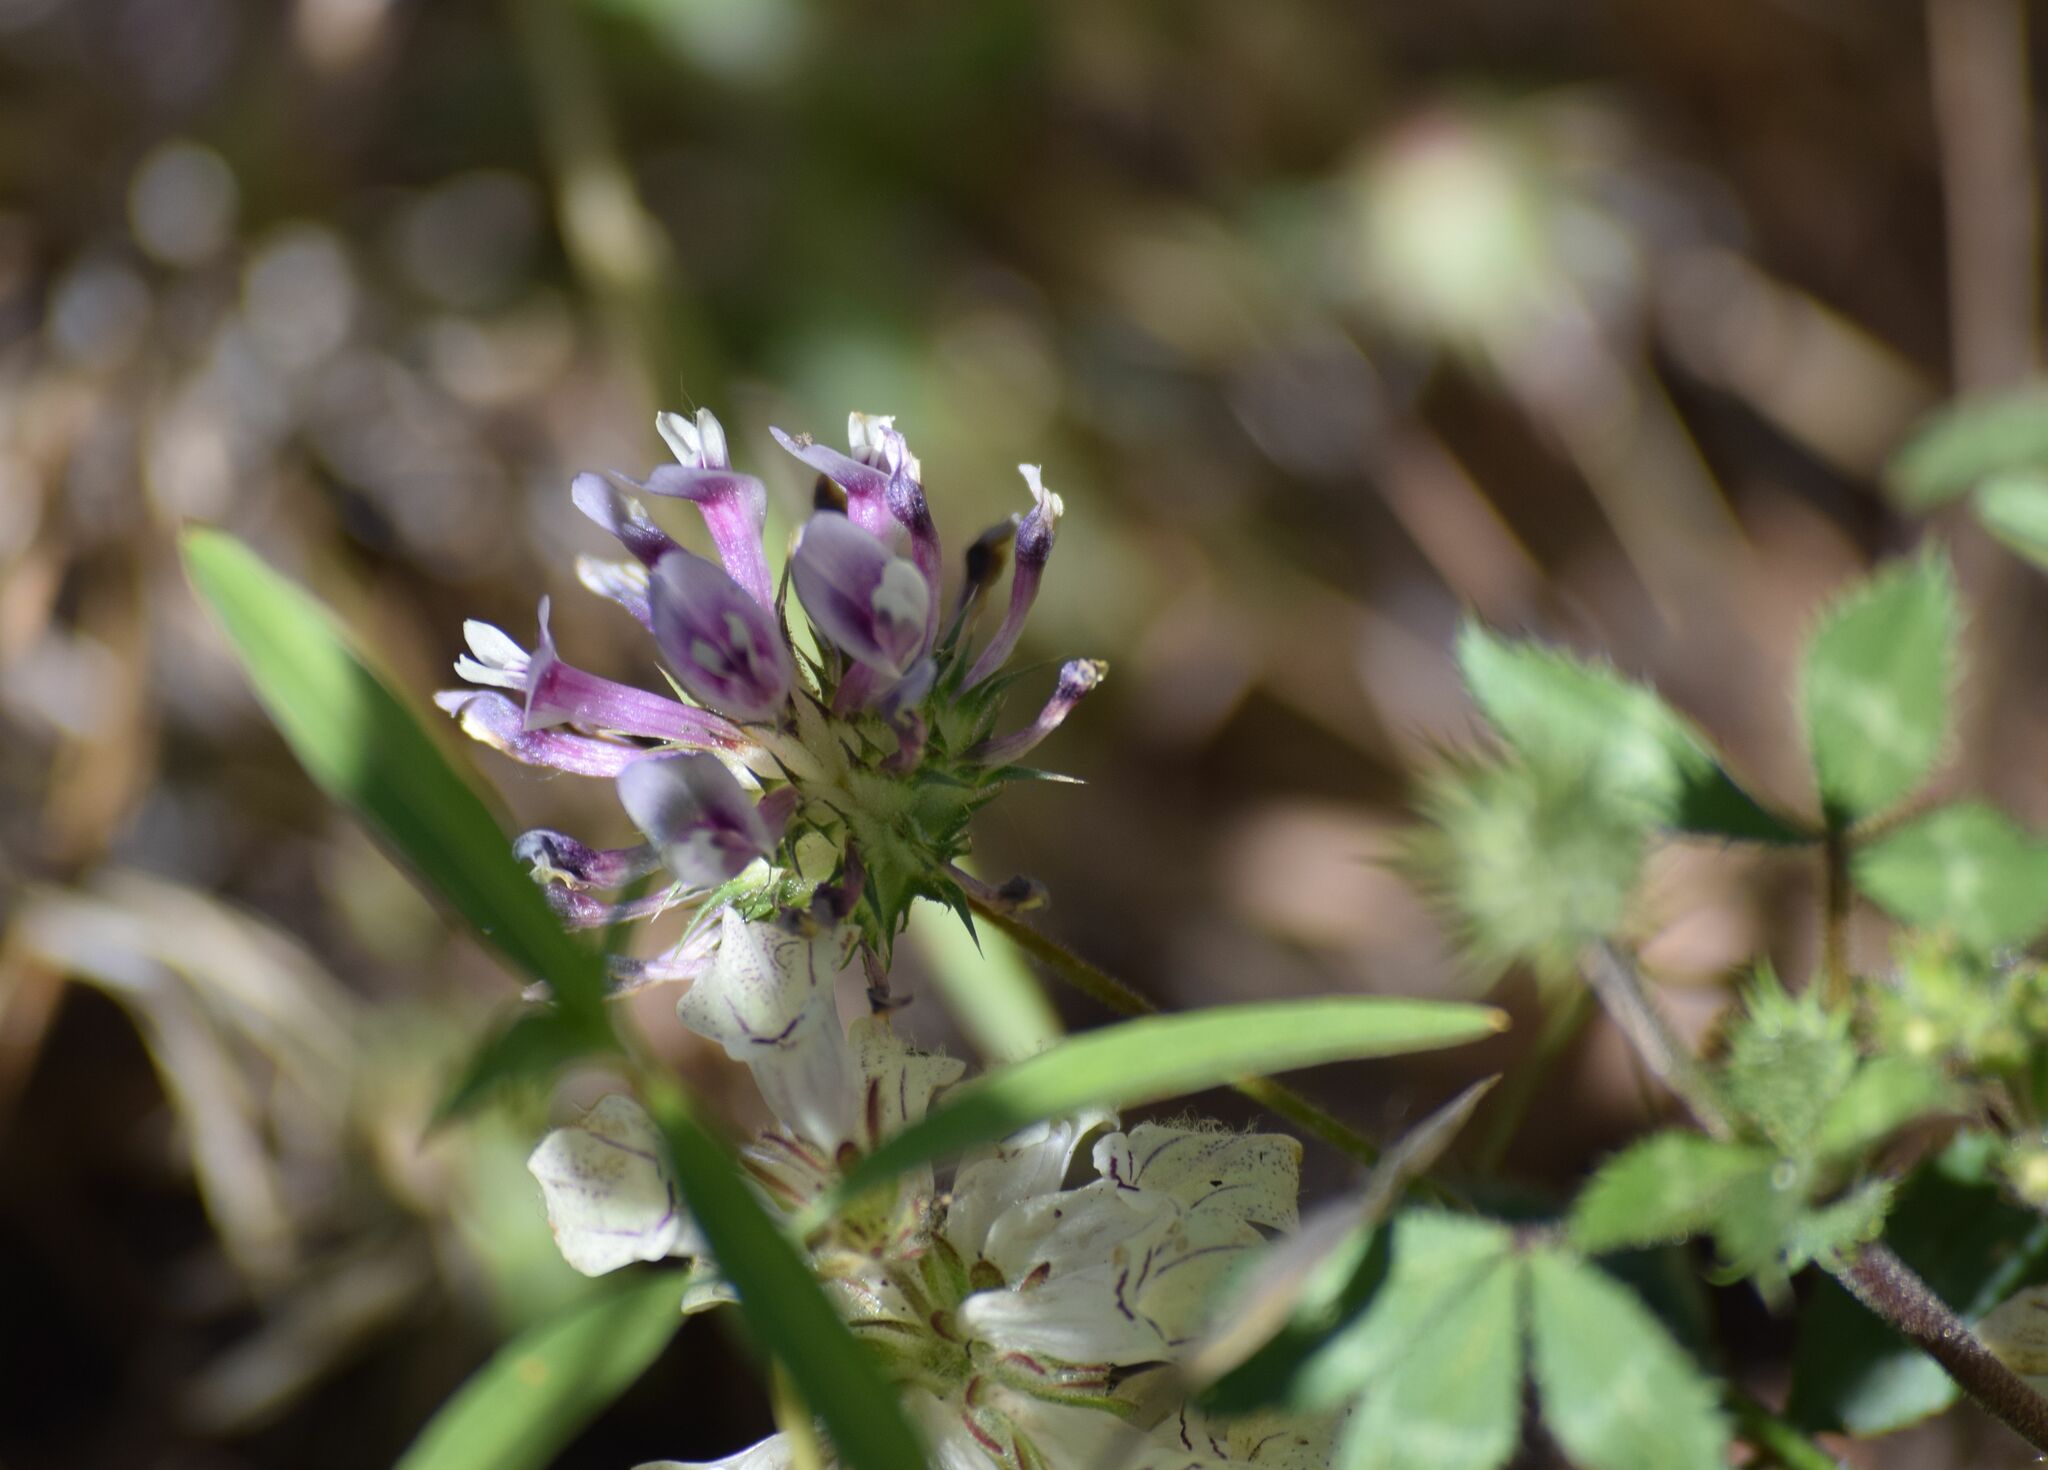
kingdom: Plantae
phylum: Tracheophyta
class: Magnoliopsida
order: Fabales
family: Fabaceae
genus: Trifolium
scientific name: Trifolium obtusiflorum
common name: Clammy clover
